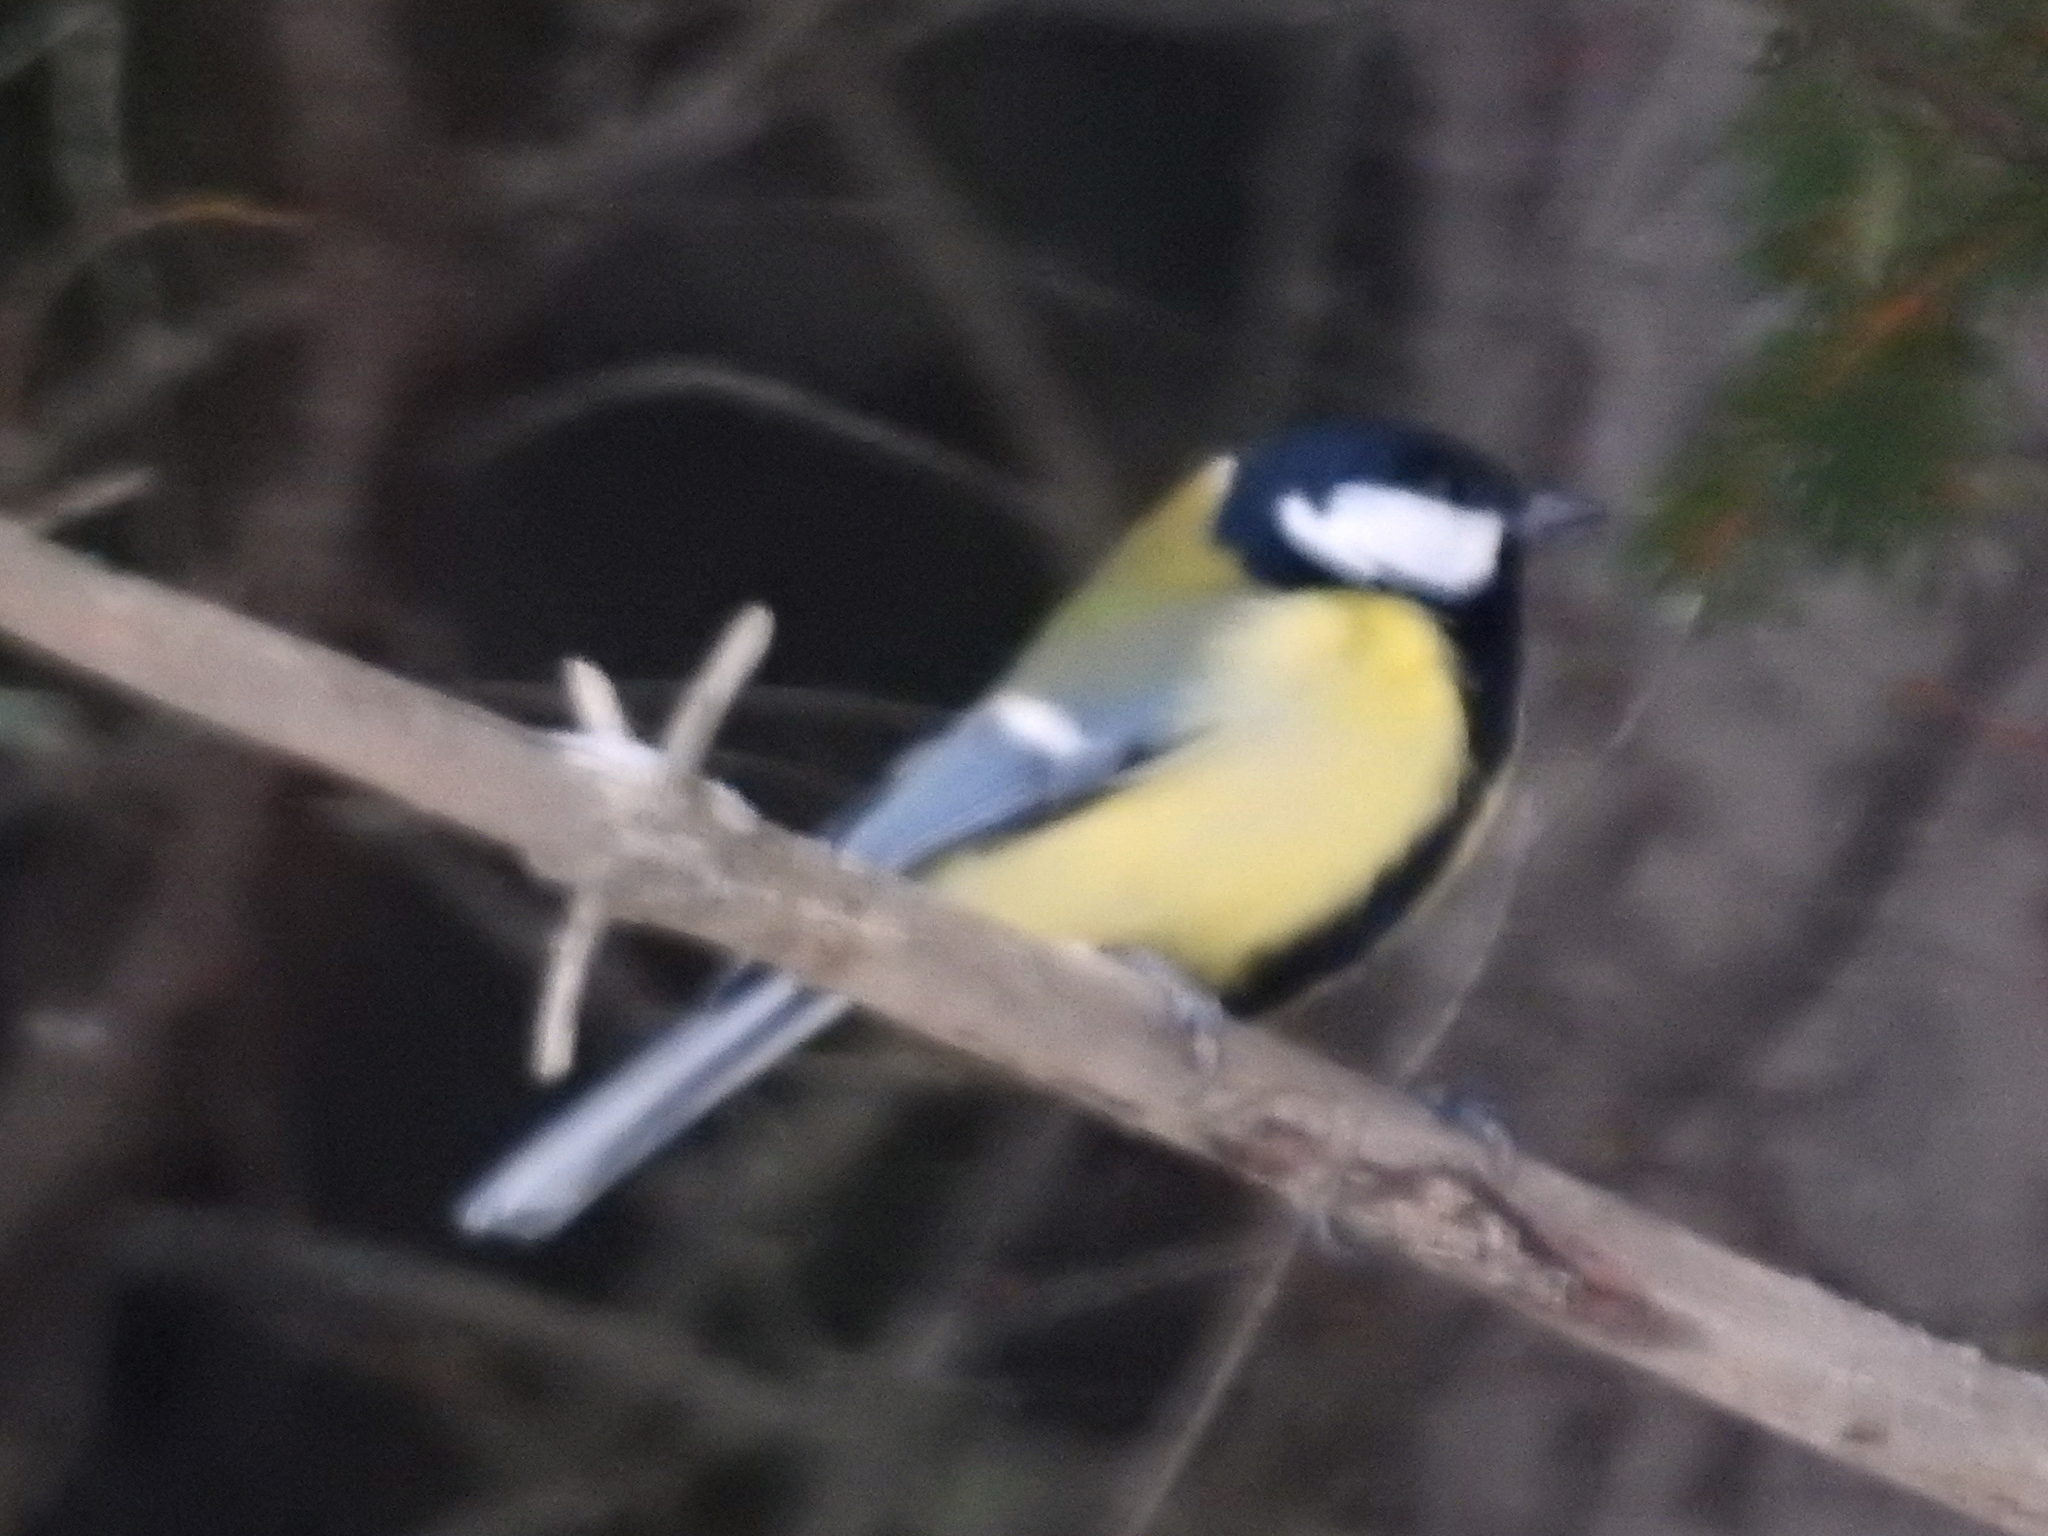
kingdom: Animalia
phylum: Chordata
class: Aves
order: Passeriformes
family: Paridae
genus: Parus
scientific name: Parus major
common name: Great tit
